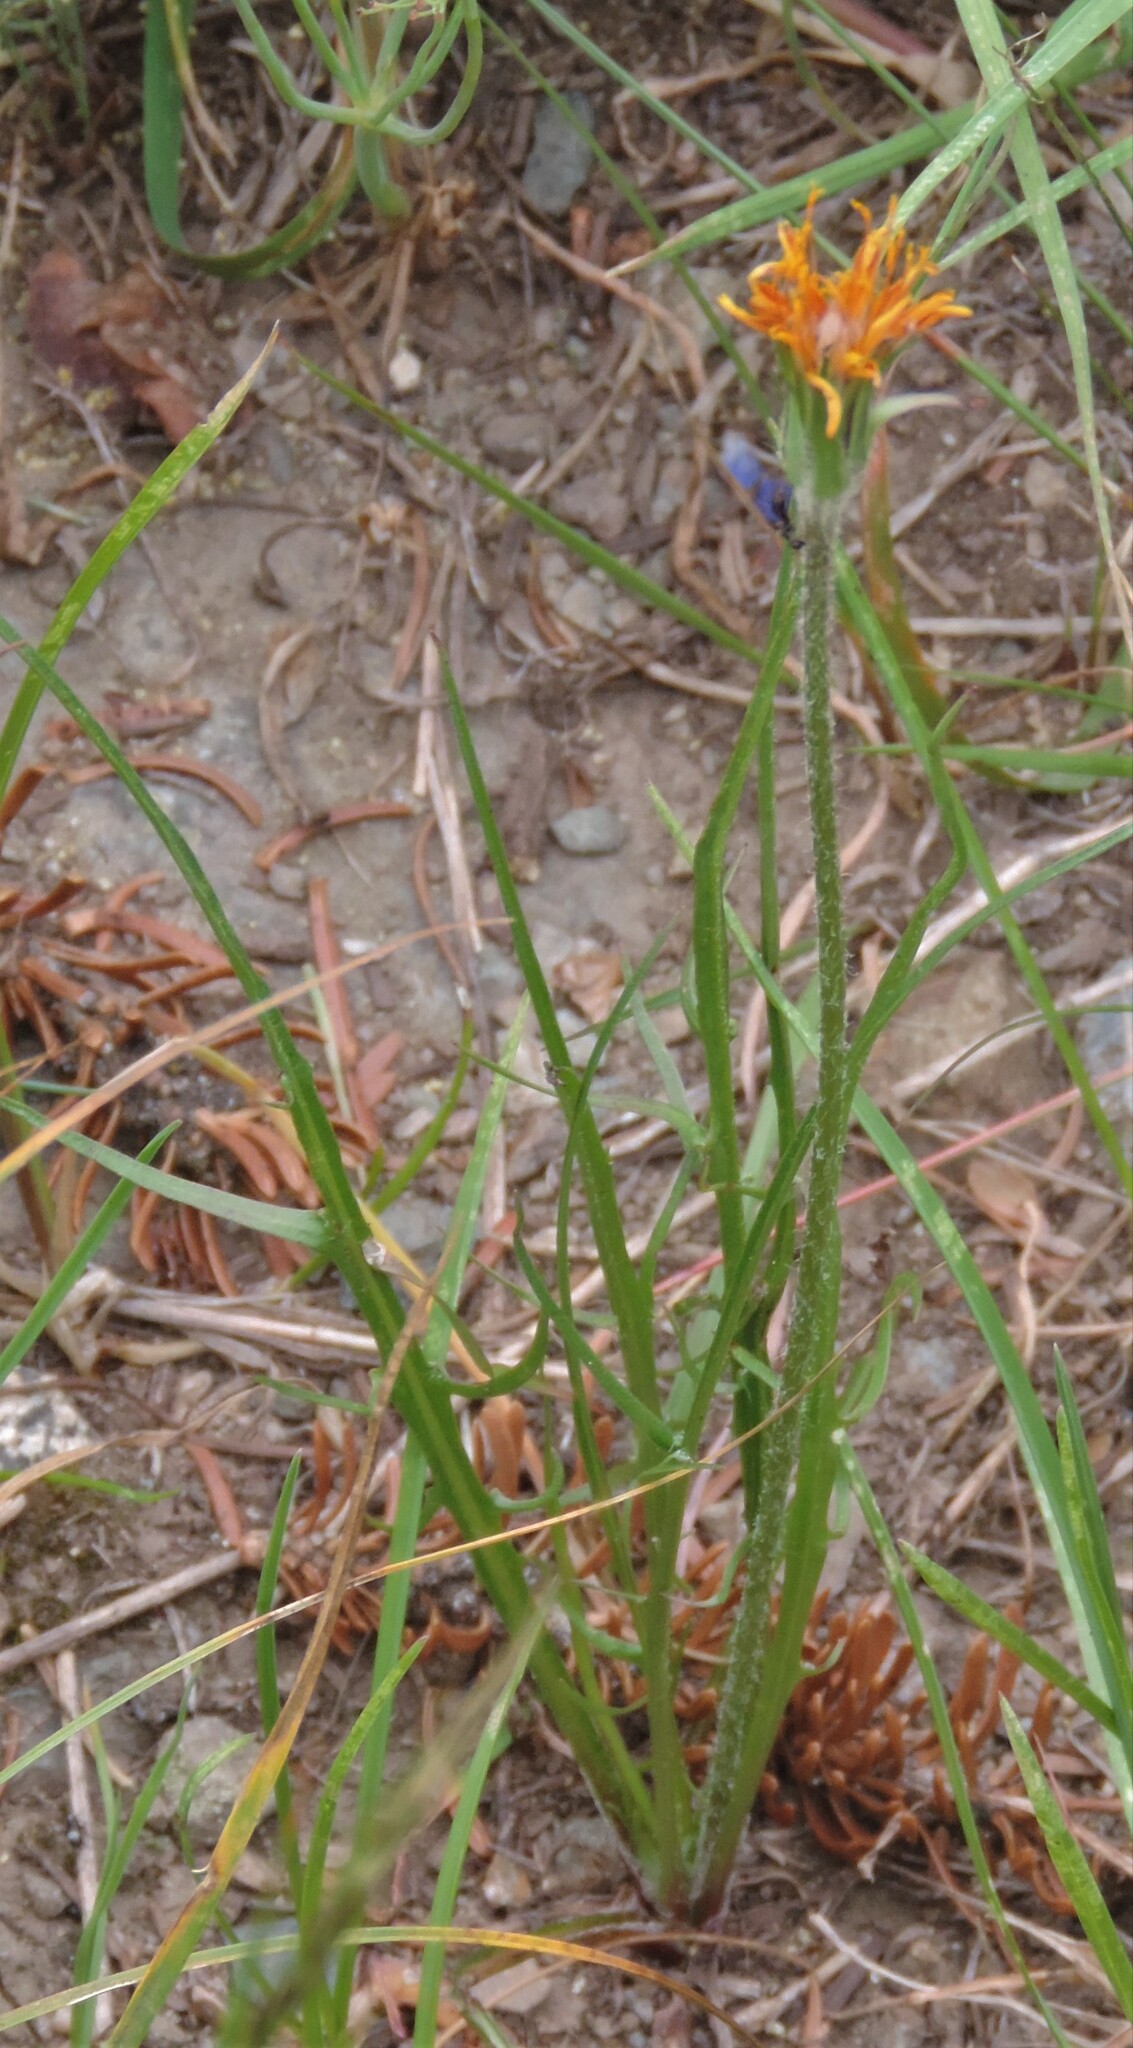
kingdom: Plantae
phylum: Tracheophyta
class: Magnoliopsida
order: Asterales
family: Asteraceae
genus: Agoseris
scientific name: Agoseris aurantiaca
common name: Mountain agoseris
